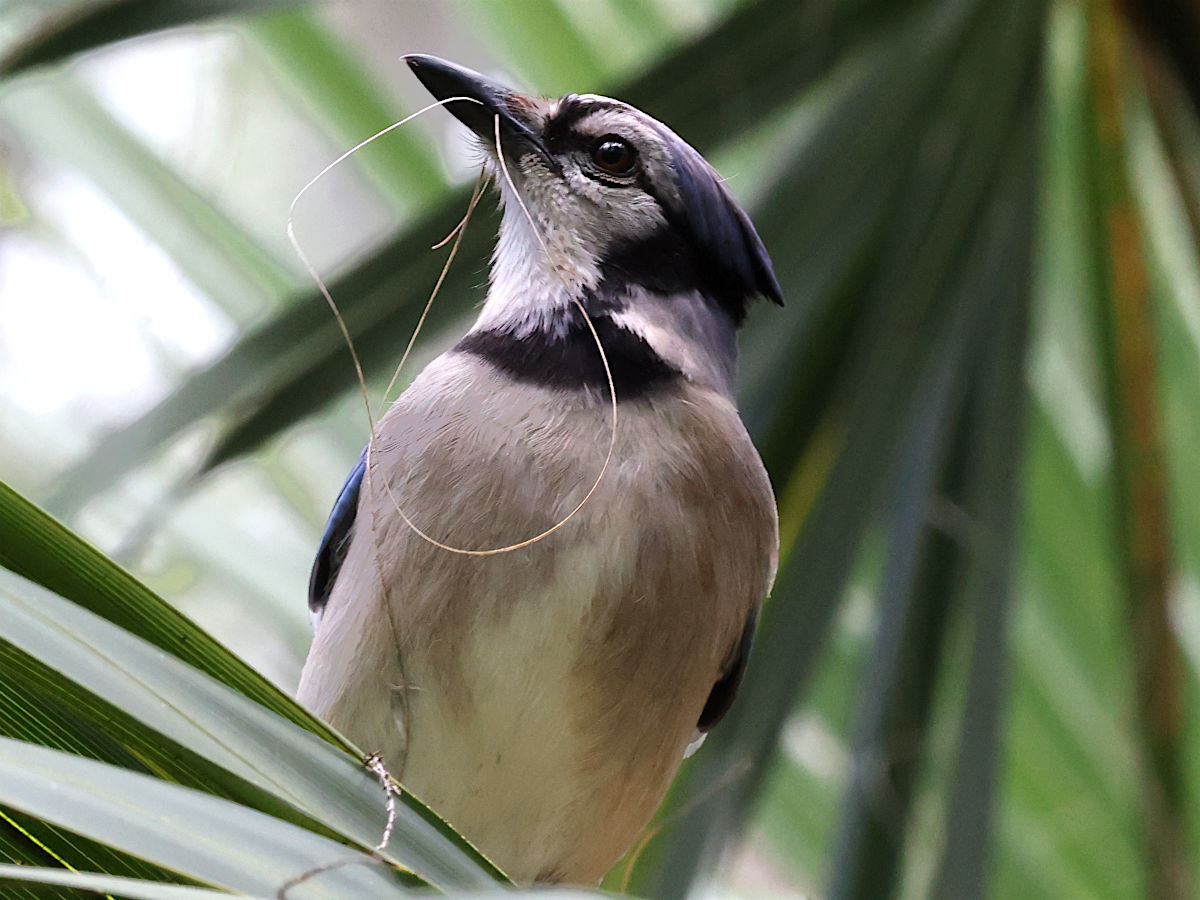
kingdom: Animalia
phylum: Chordata
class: Aves
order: Passeriformes
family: Corvidae
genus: Cyanocitta
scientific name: Cyanocitta cristata
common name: Blue jay
